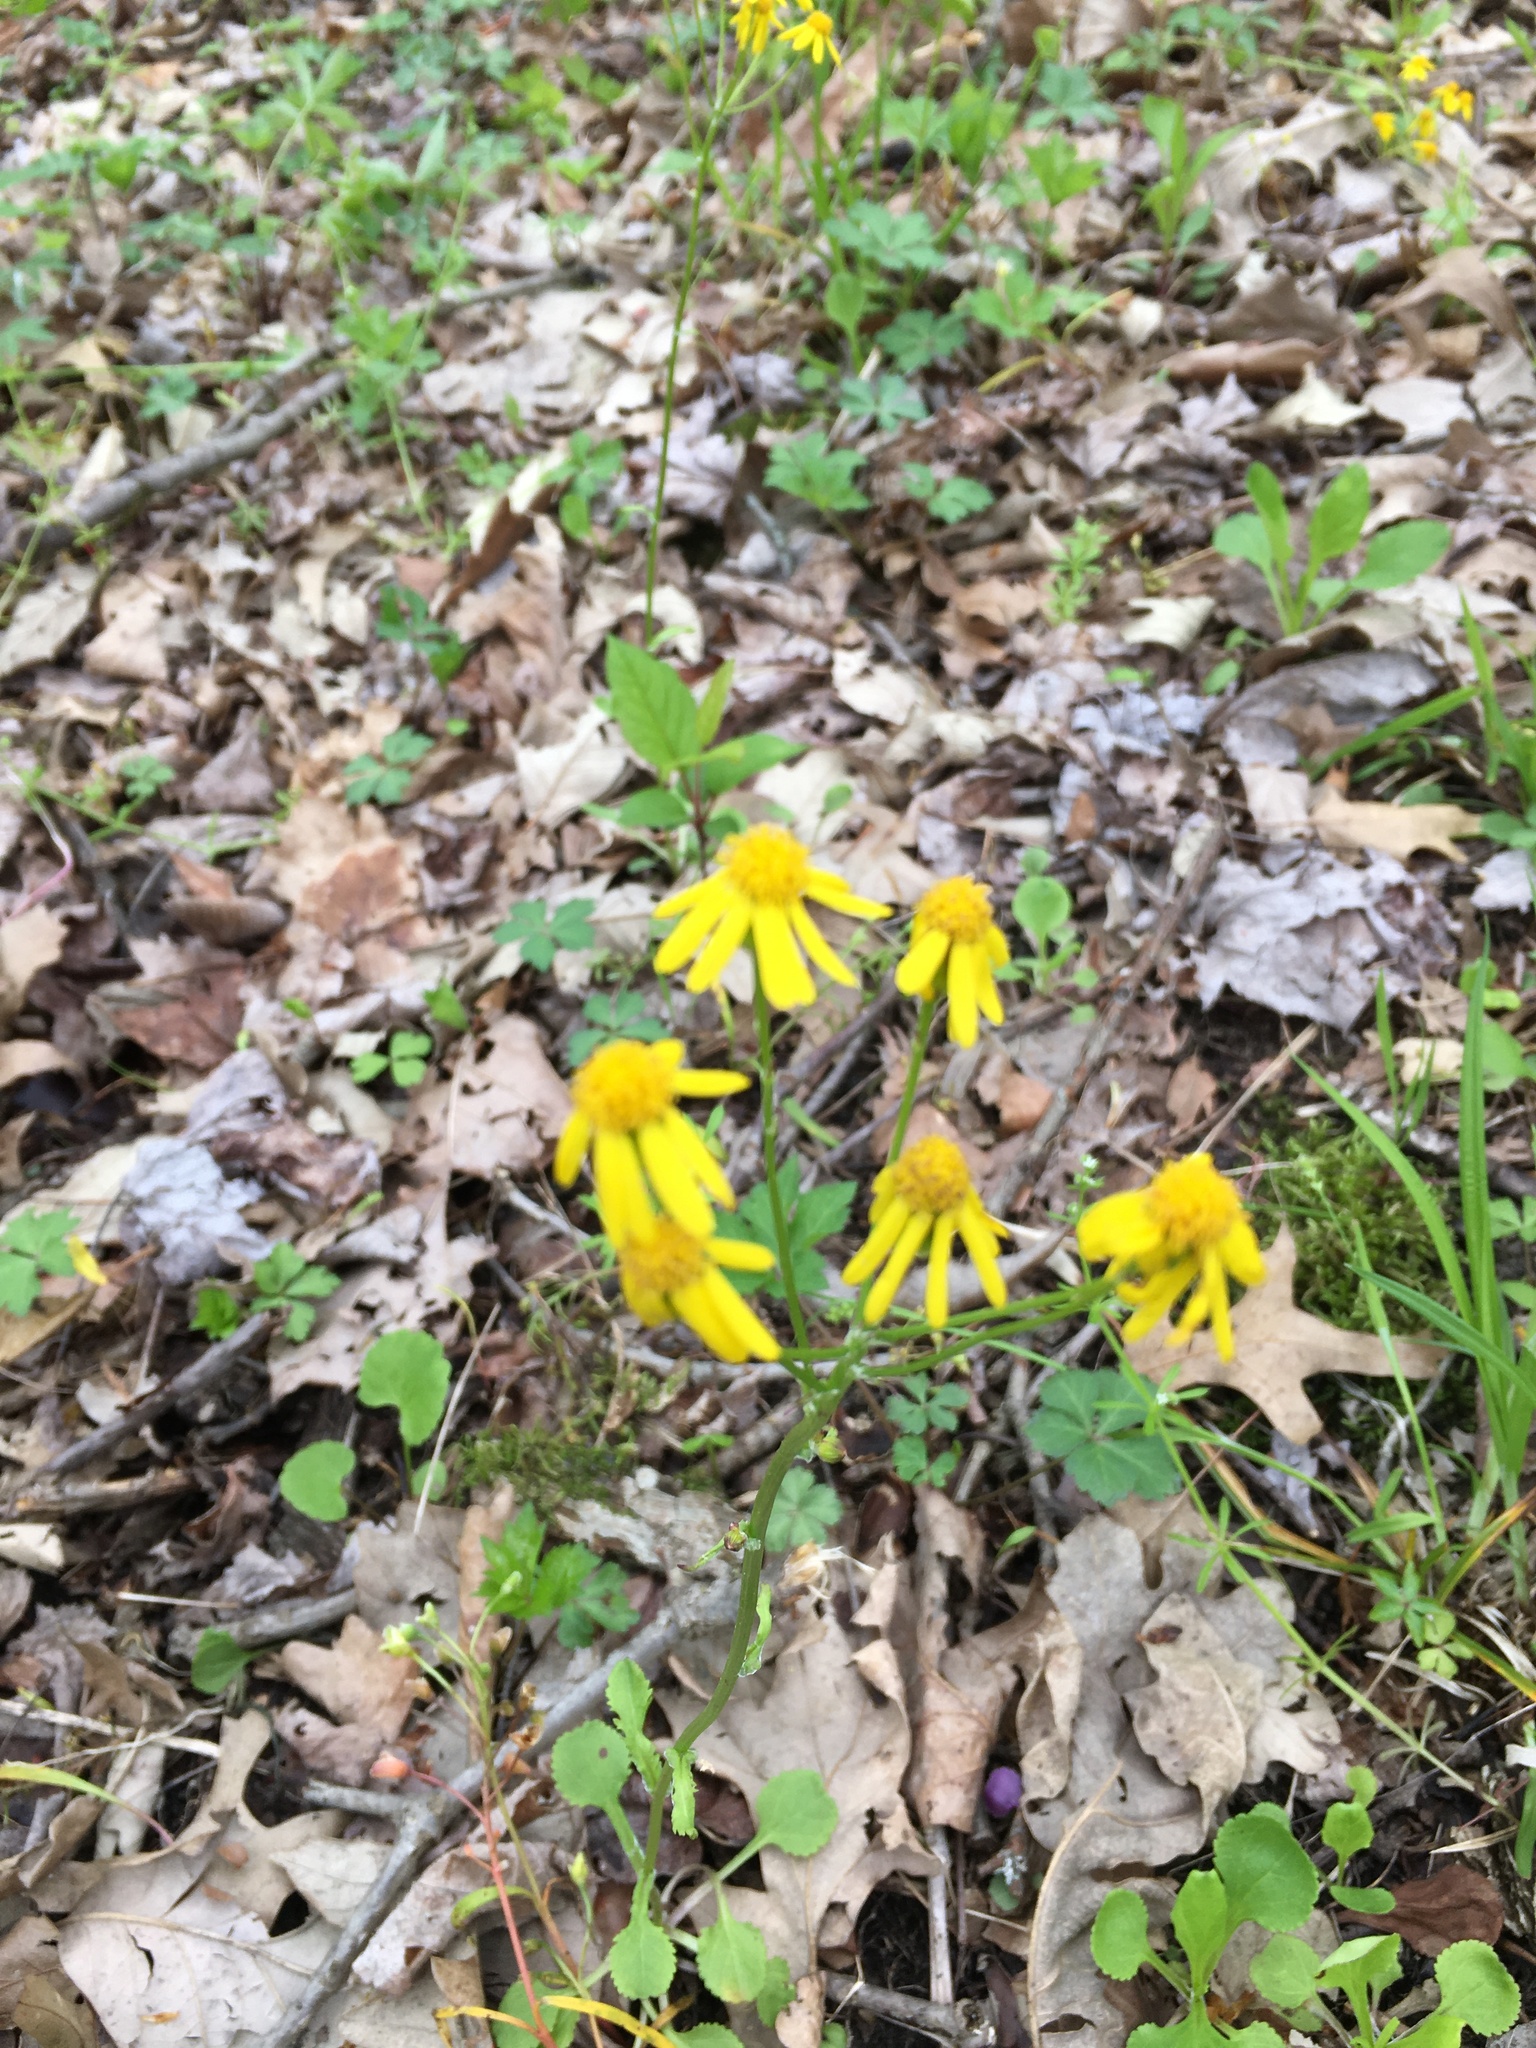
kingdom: Plantae
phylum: Tracheophyta
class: Magnoliopsida
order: Asterales
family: Asteraceae
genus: Packera
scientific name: Packera obovata
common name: Round-leaf ragwort
